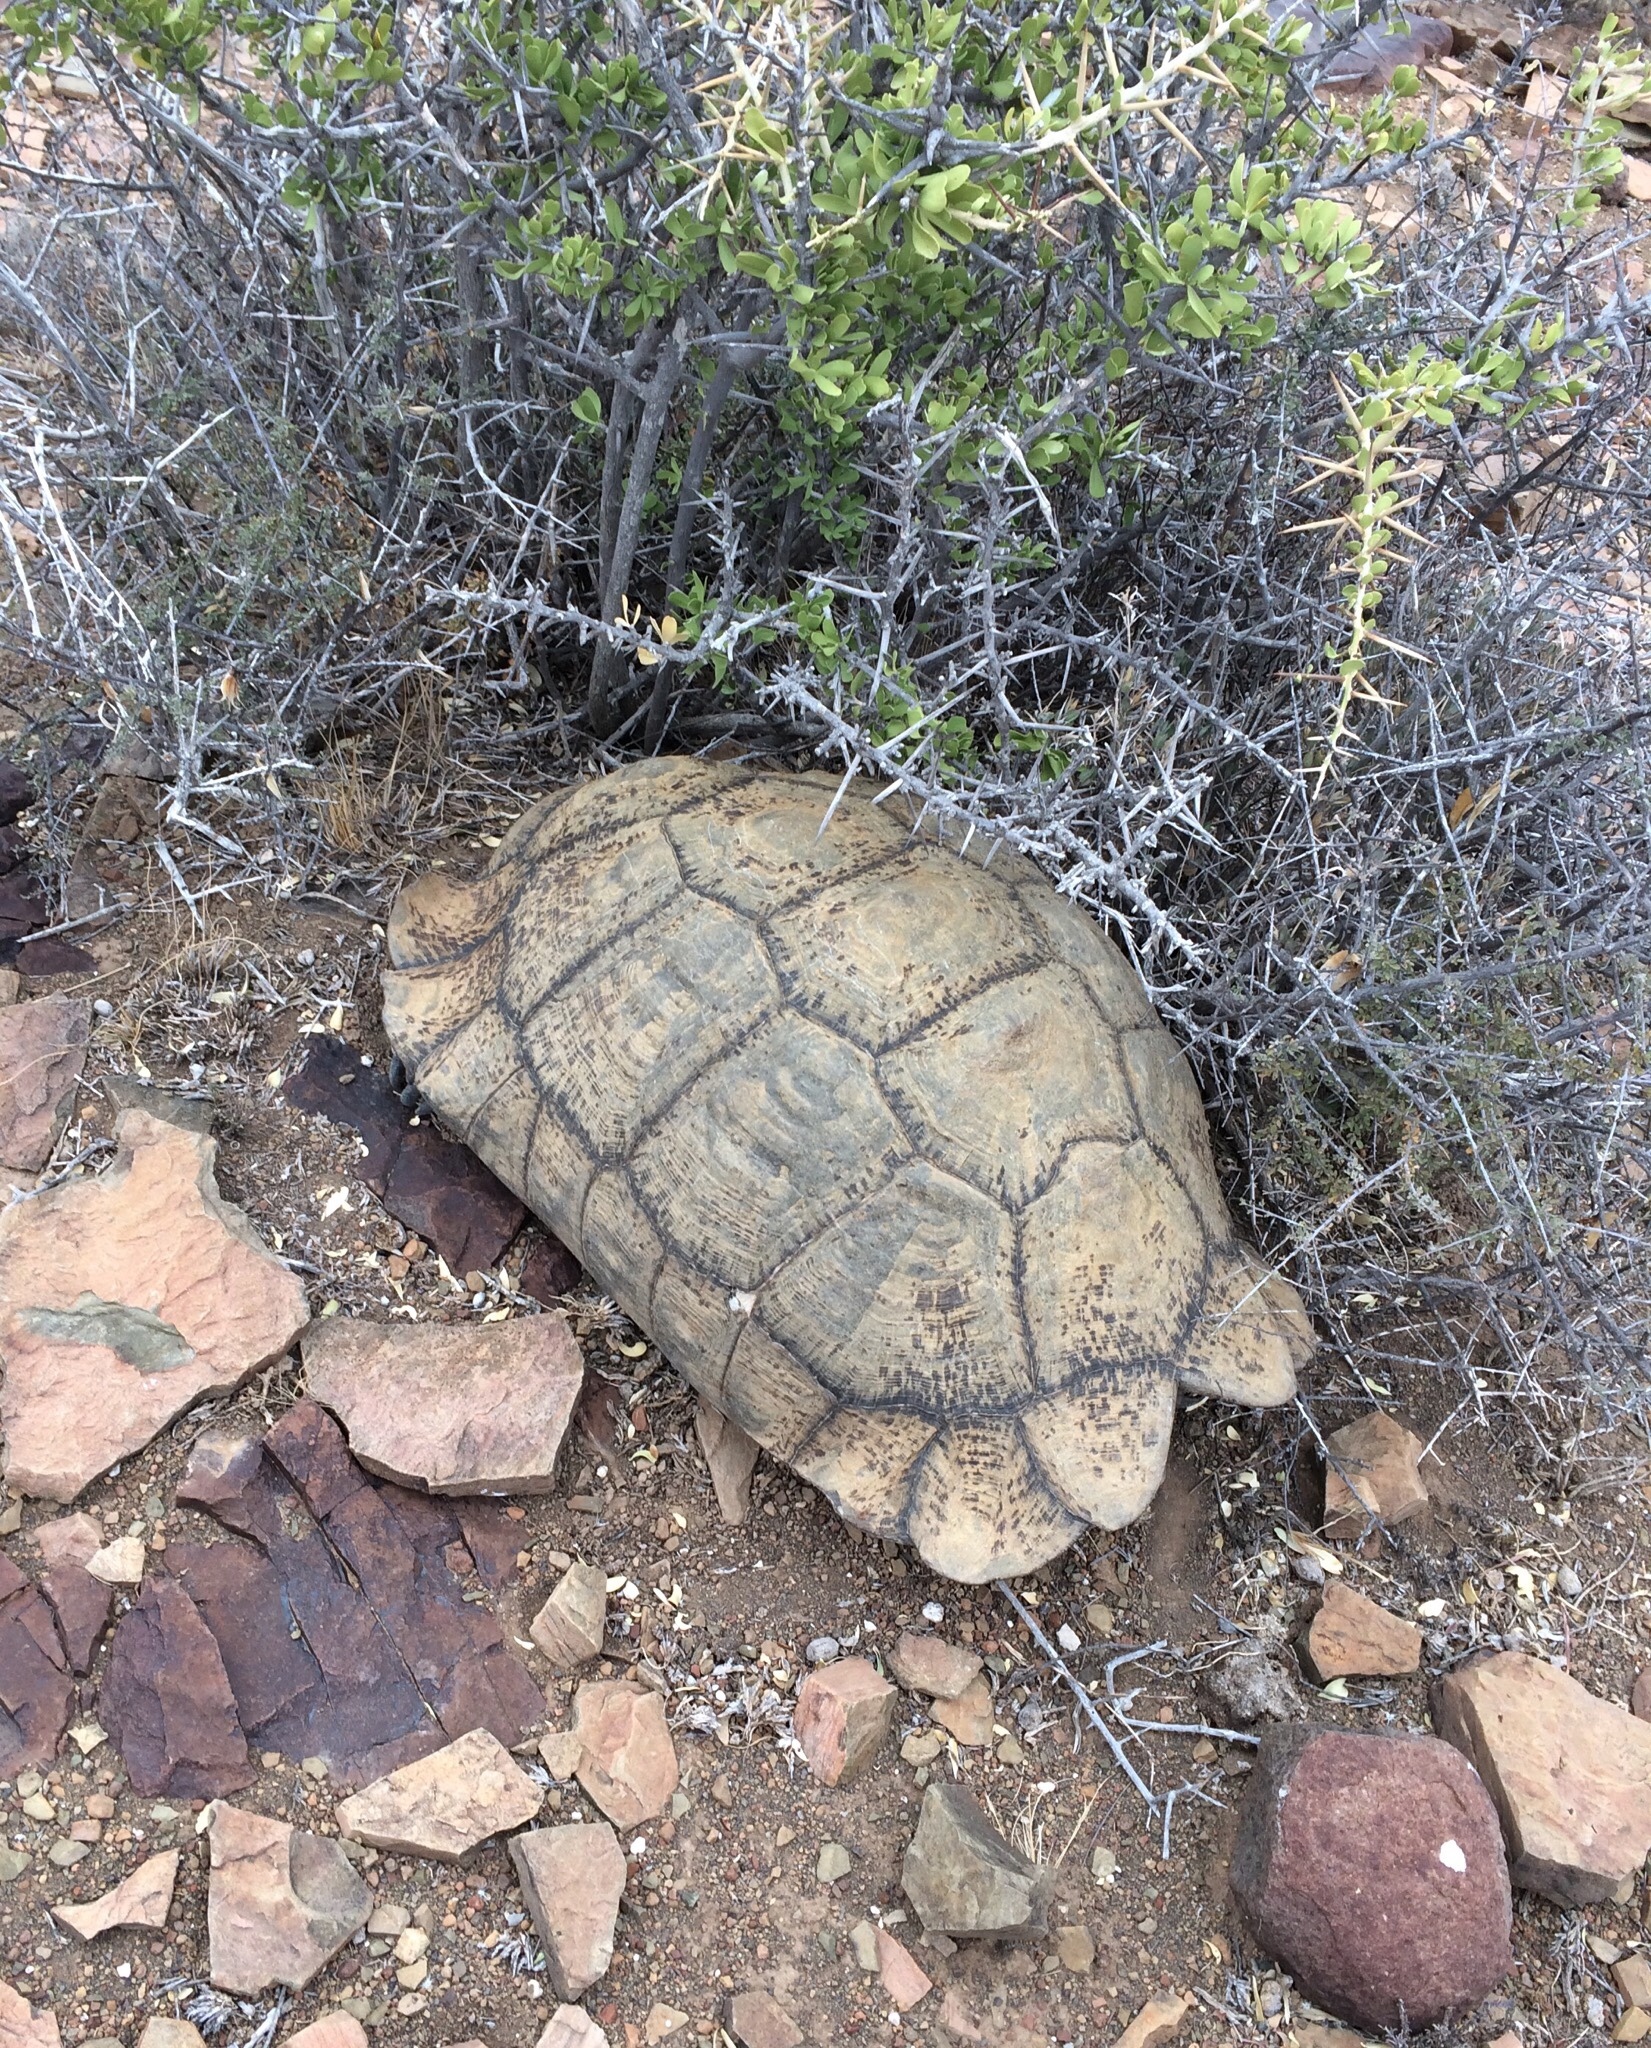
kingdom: Animalia
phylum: Chordata
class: Testudines
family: Testudinidae
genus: Stigmochelys
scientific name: Stigmochelys pardalis
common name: Leopard tortoise
